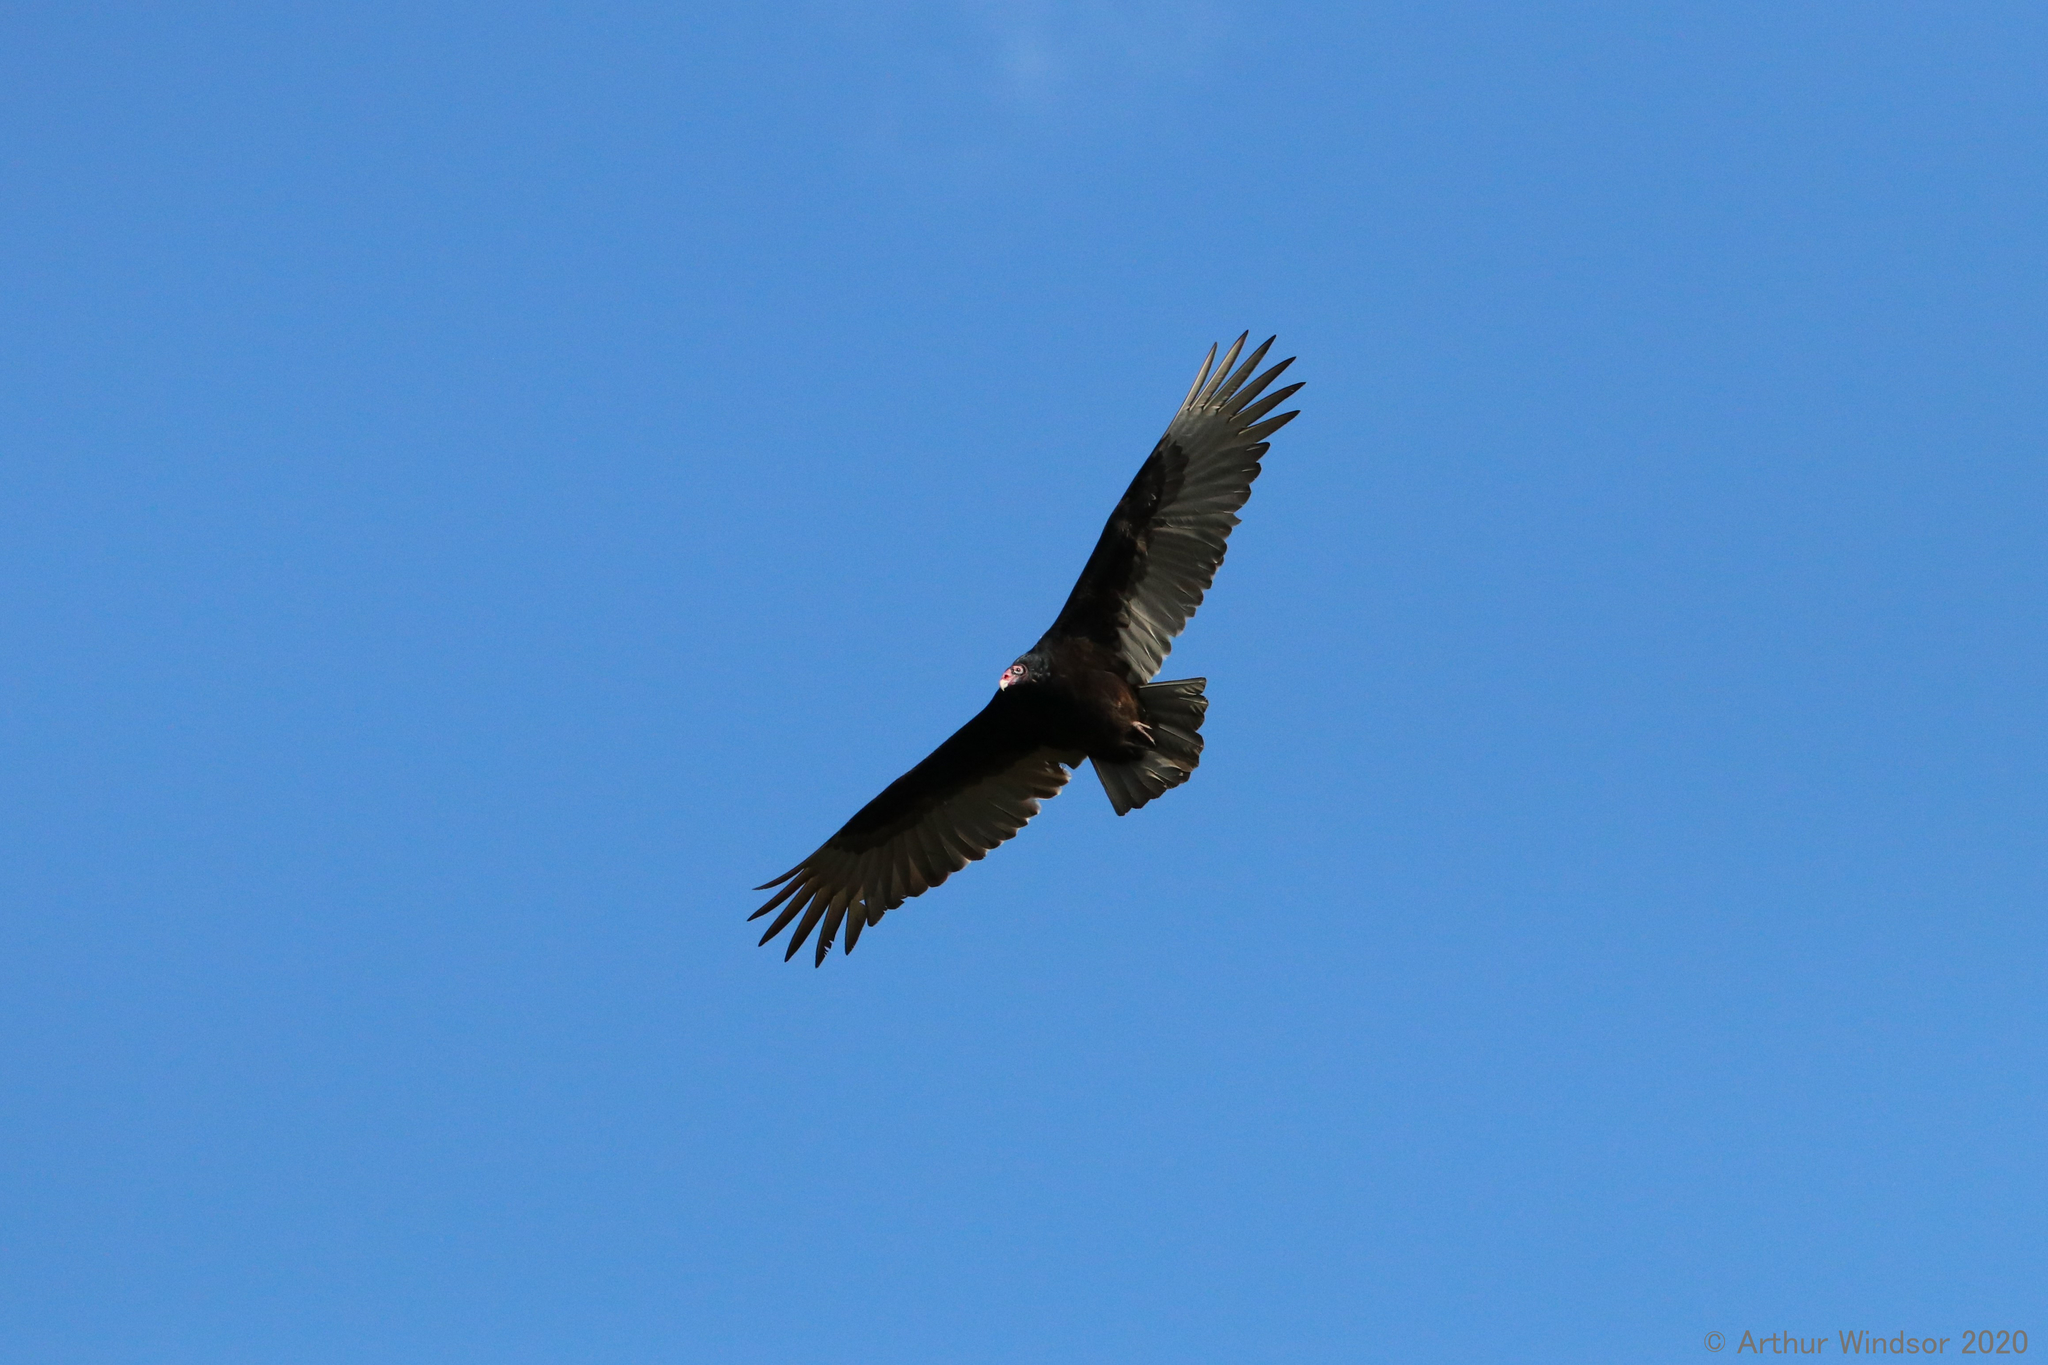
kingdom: Animalia
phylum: Chordata
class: Aves
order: Accipitriformes
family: Cathartidae
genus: Cathartes
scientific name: Cathartes aura
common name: Turkey vulture
